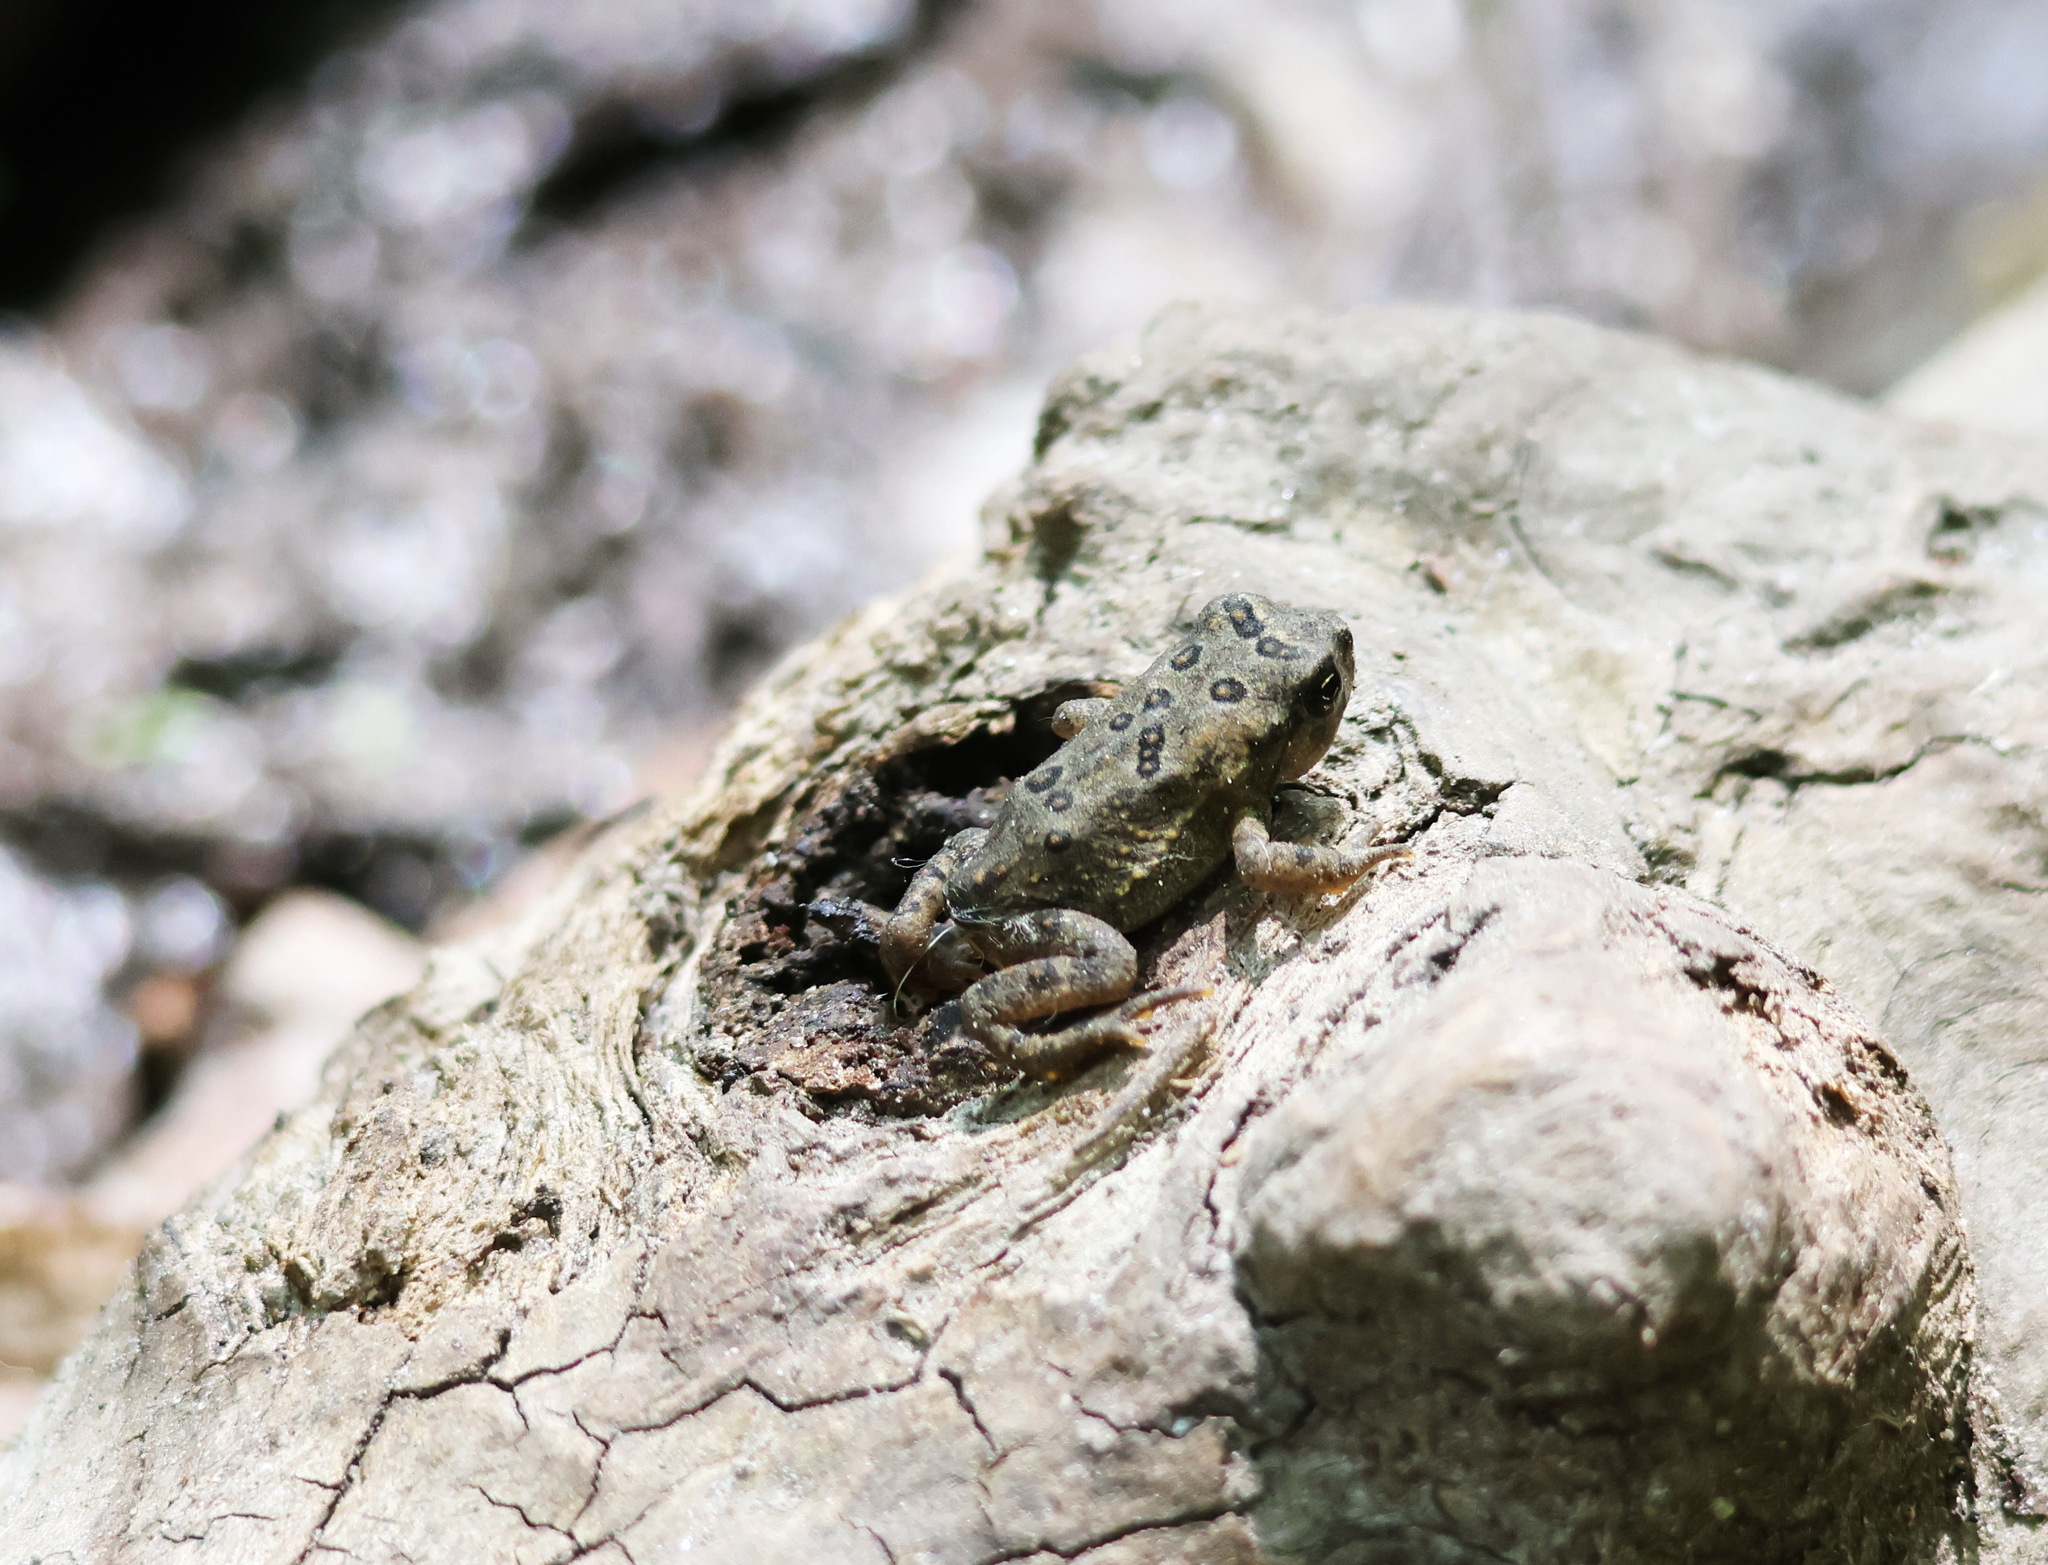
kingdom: Animalia
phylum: Chordata
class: Amphibia
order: Anura
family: Bufonidae
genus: Anaxyrus
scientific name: Anaxyrus americanus
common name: American toad
